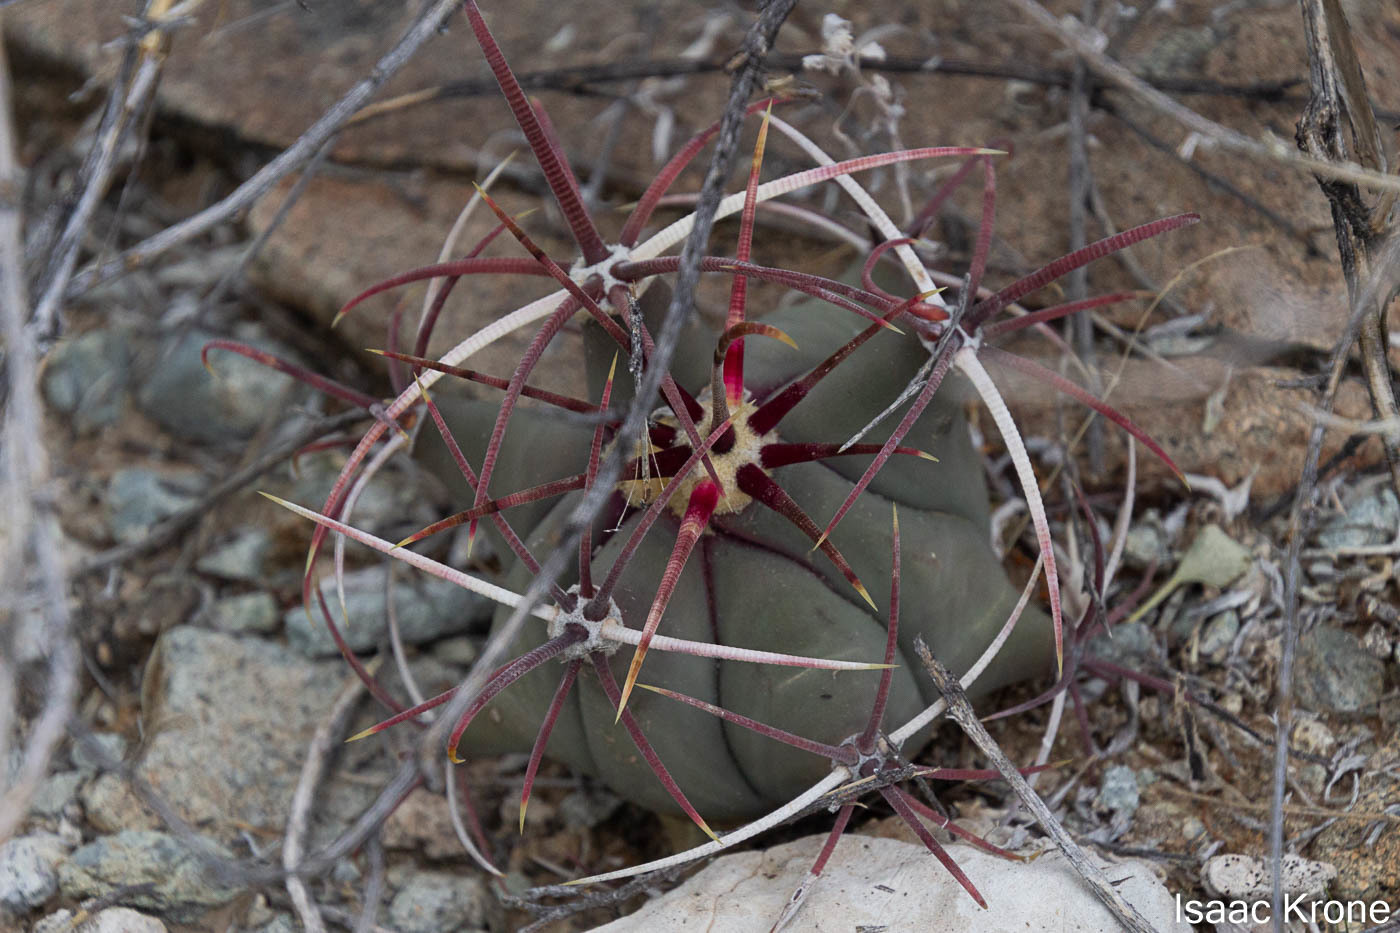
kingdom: Plantae
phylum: Tracheophyta
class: Magnoliopsida
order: Caryophyllales
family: Cactaceae
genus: Ferocactus
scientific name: Ferocactus emoryi
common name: Emory's barrel cactus
